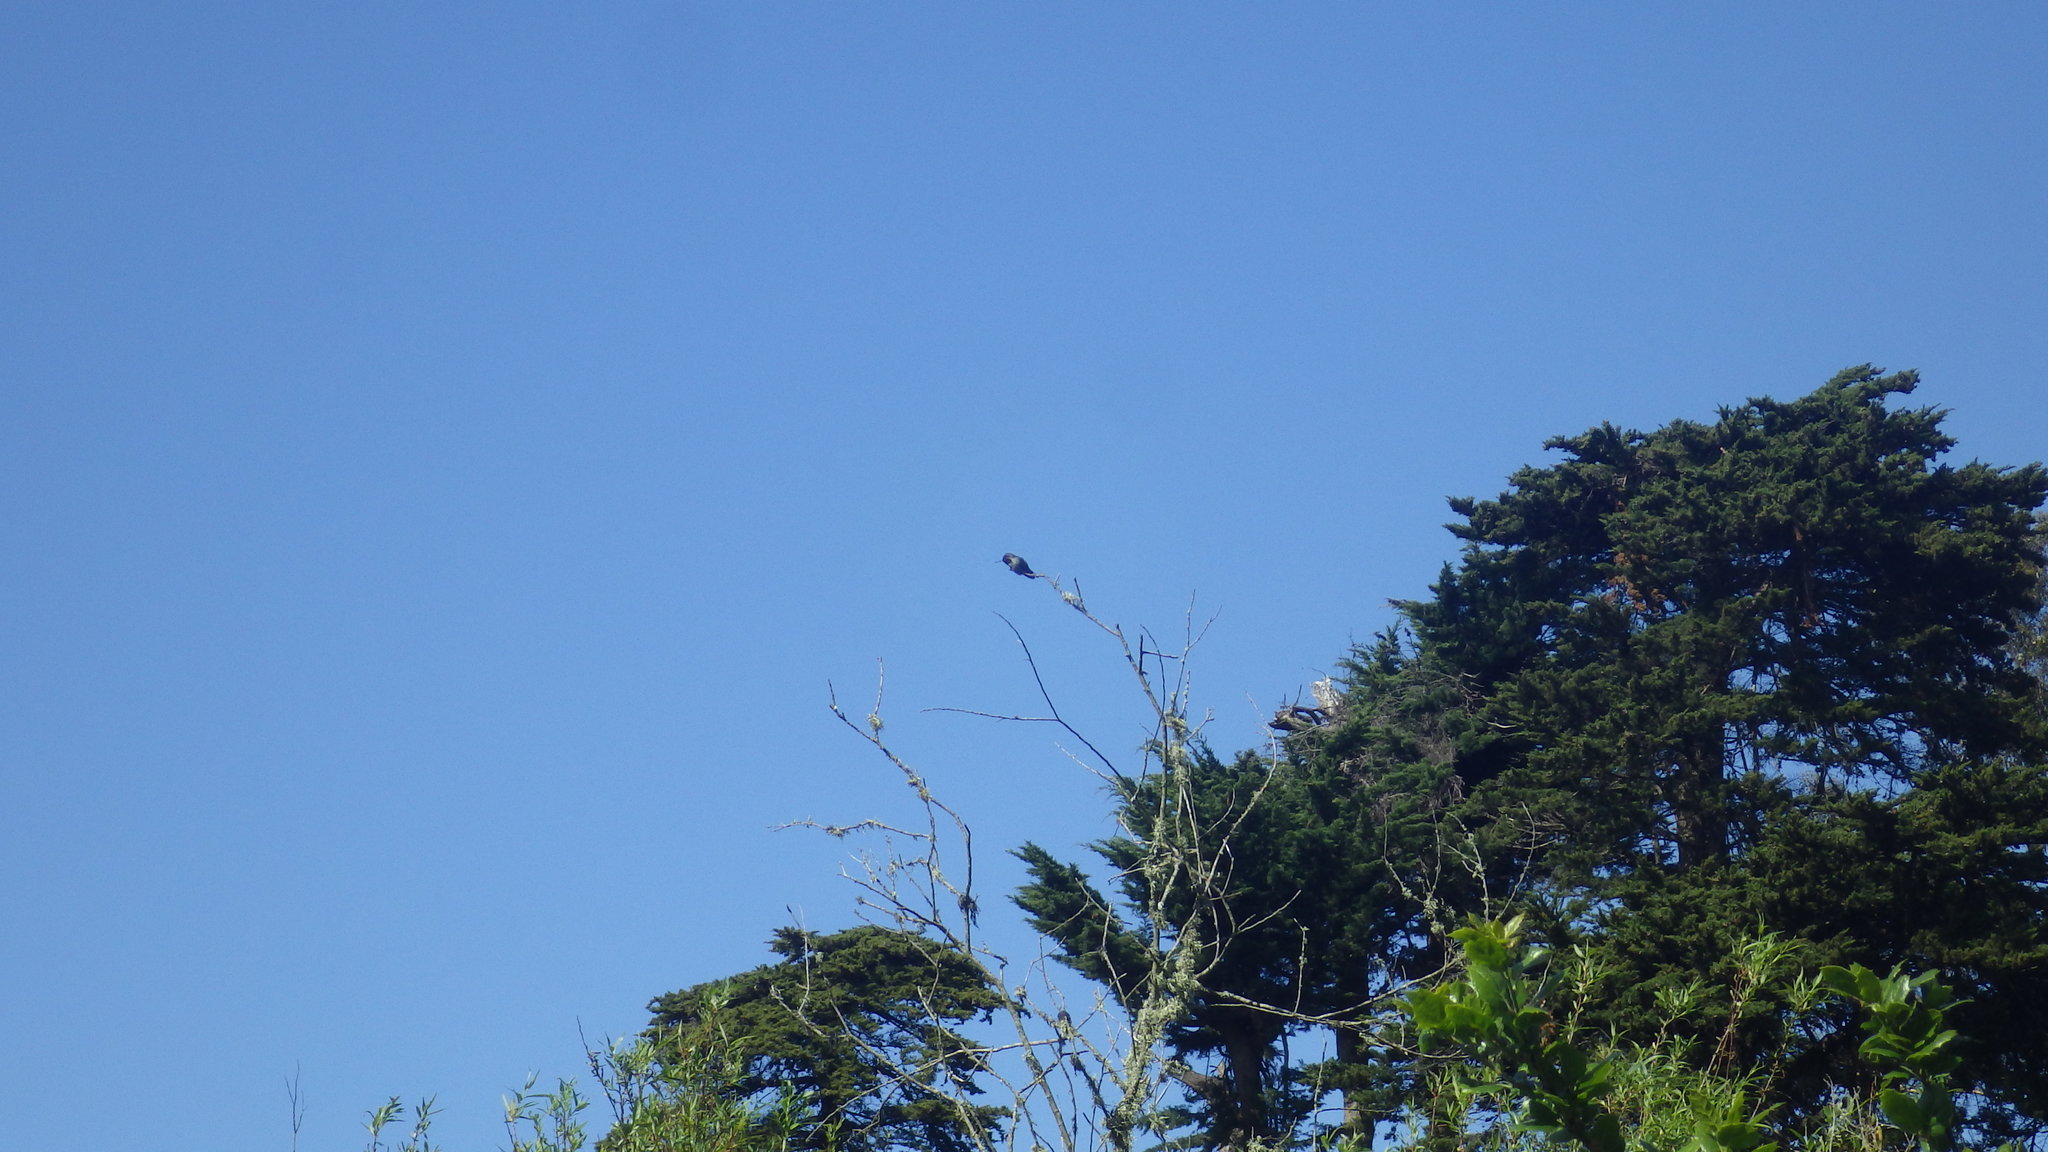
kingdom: Animalia
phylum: Chordata
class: Aves
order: Apodiformes
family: Trochilidae
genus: Calypte
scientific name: Calypte anna
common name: Anna's hummingbird
